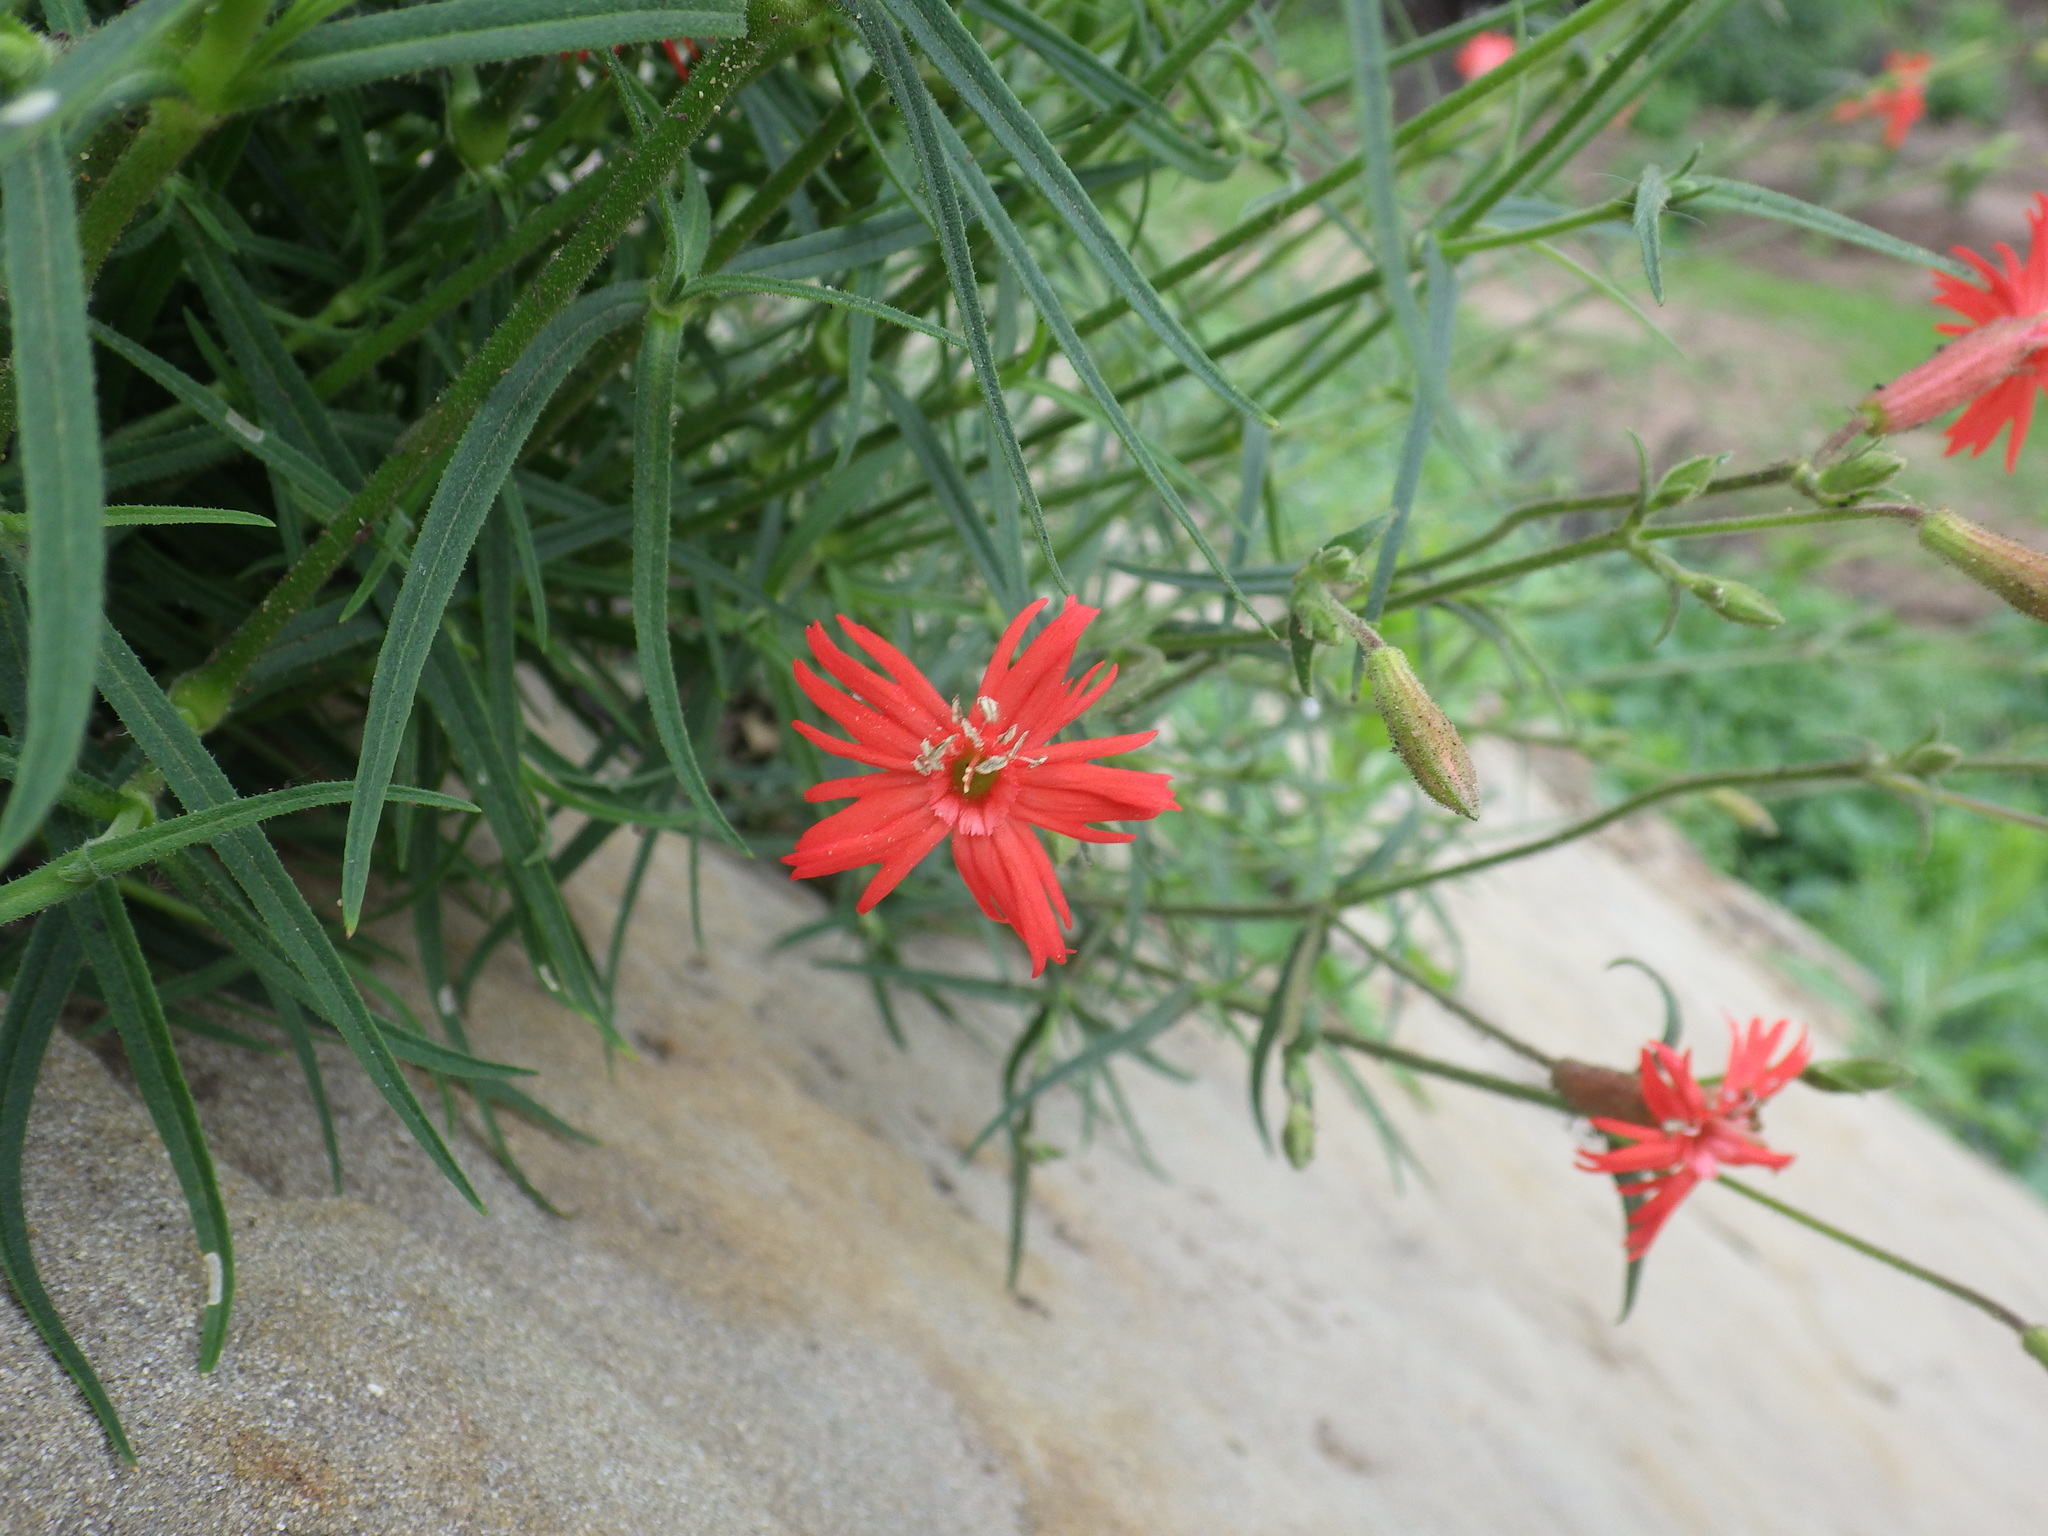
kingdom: Plantae
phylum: Tracheophyta
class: Magnoliopsida
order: Caryophyllales
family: Caryophyllaceae
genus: Silene
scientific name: Silene laciniata
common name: Indian-pink
